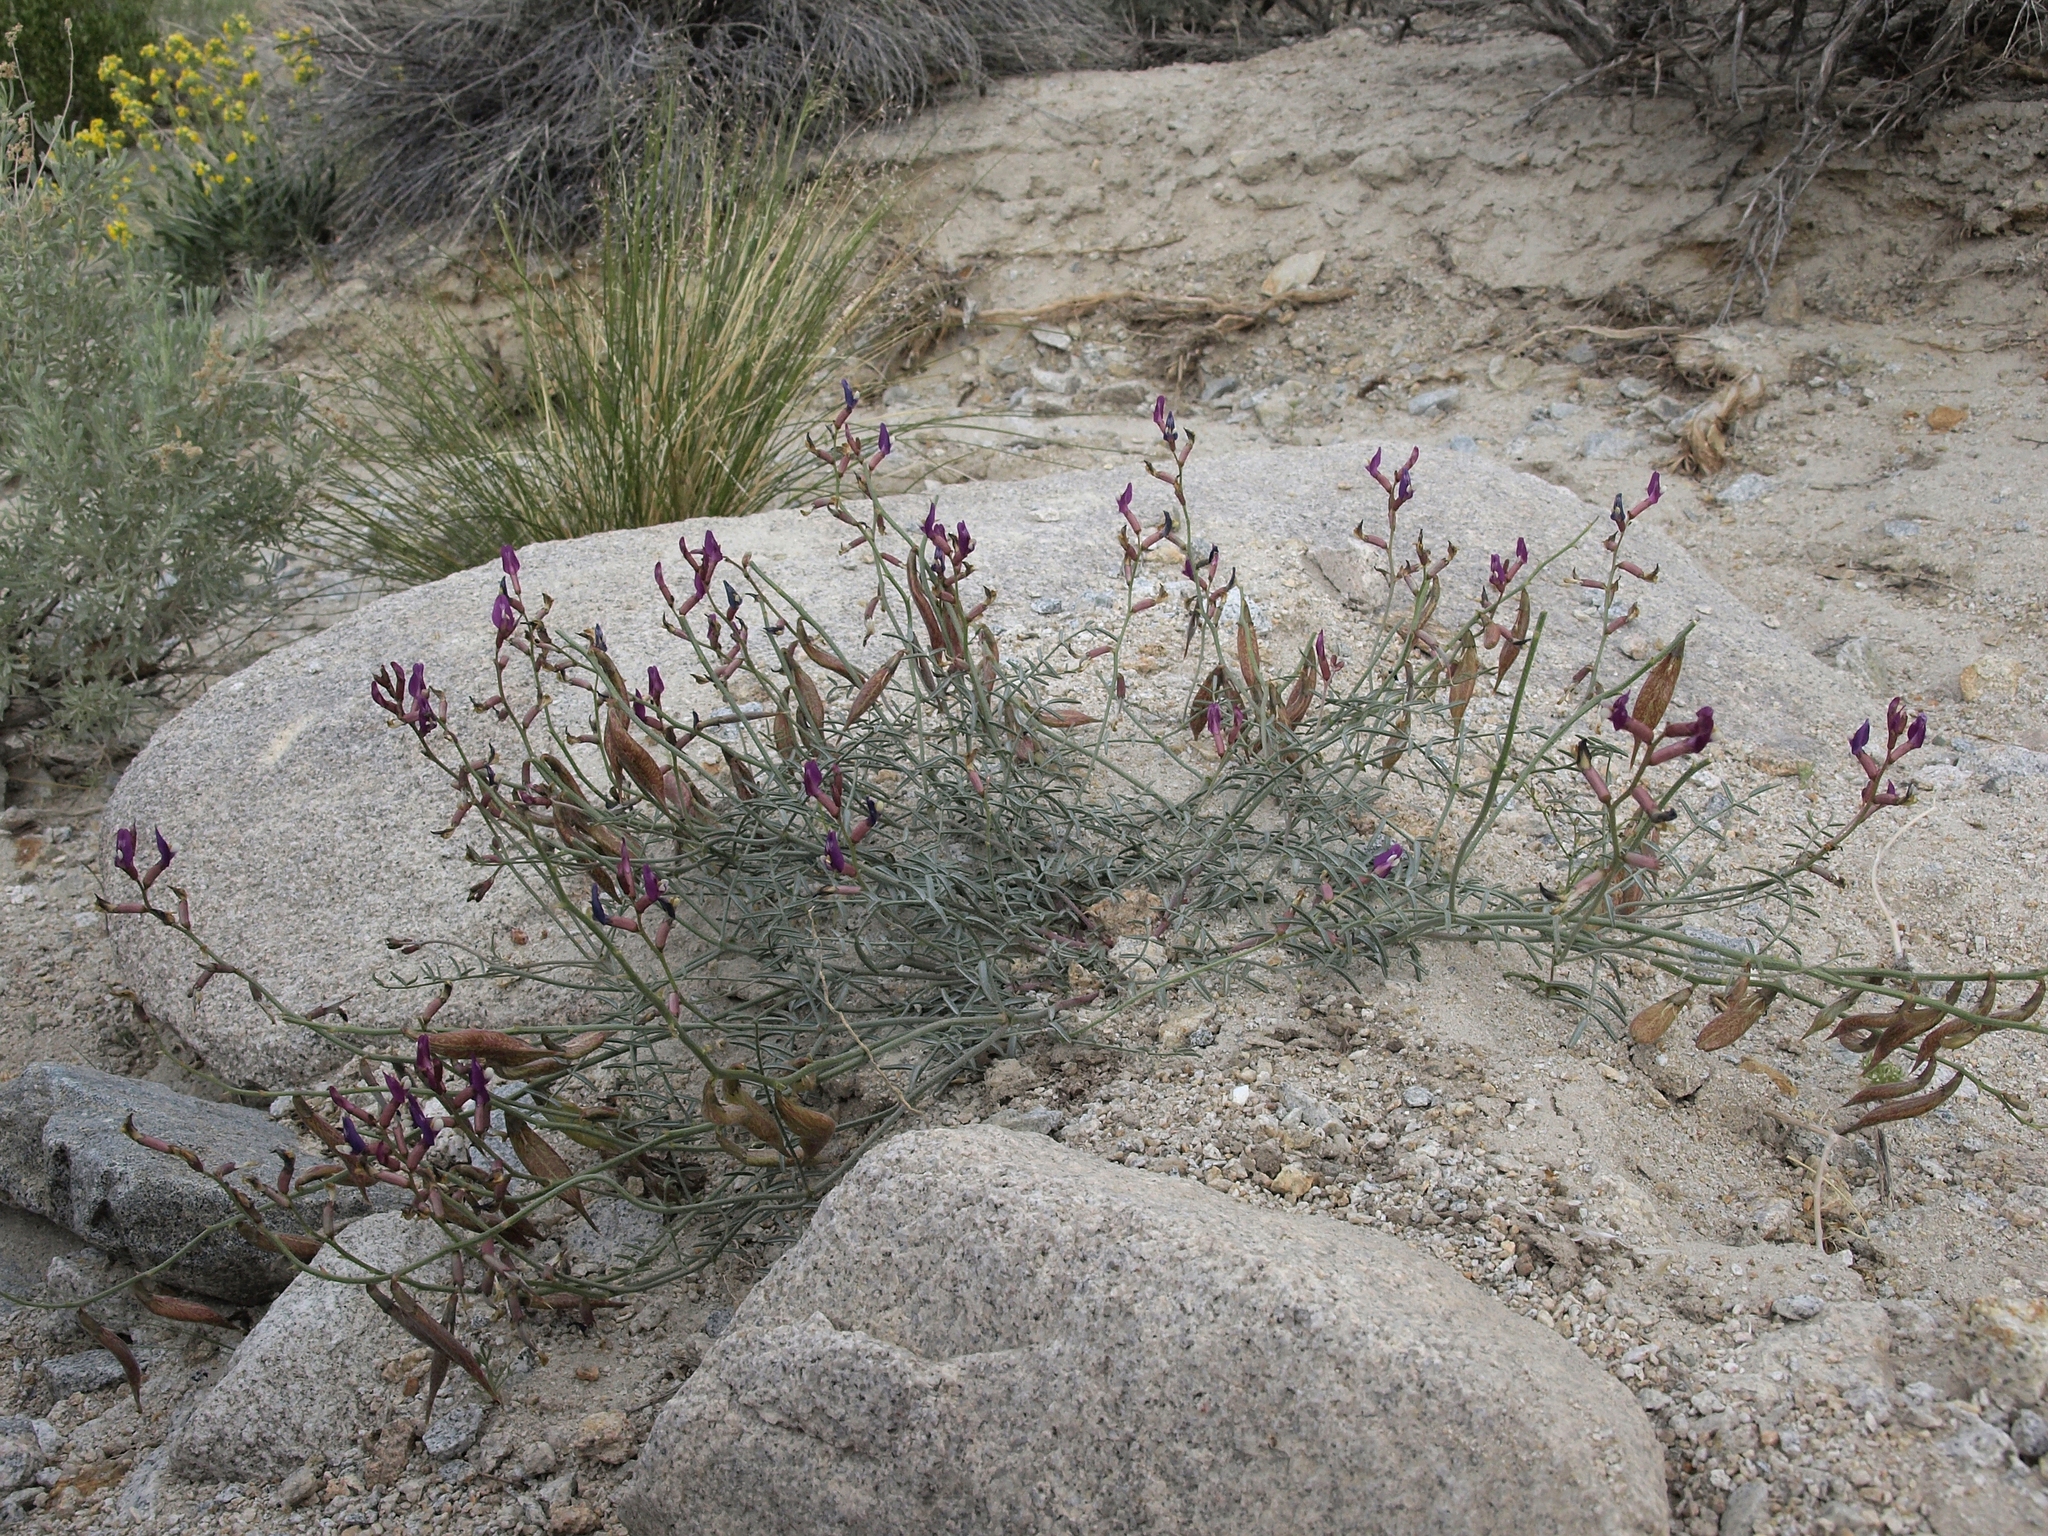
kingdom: Plantae
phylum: Tracheophyta
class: Magnoliopsida
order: Fabales
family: Fabaceae
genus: Astragalus
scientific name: Astragalus casei
